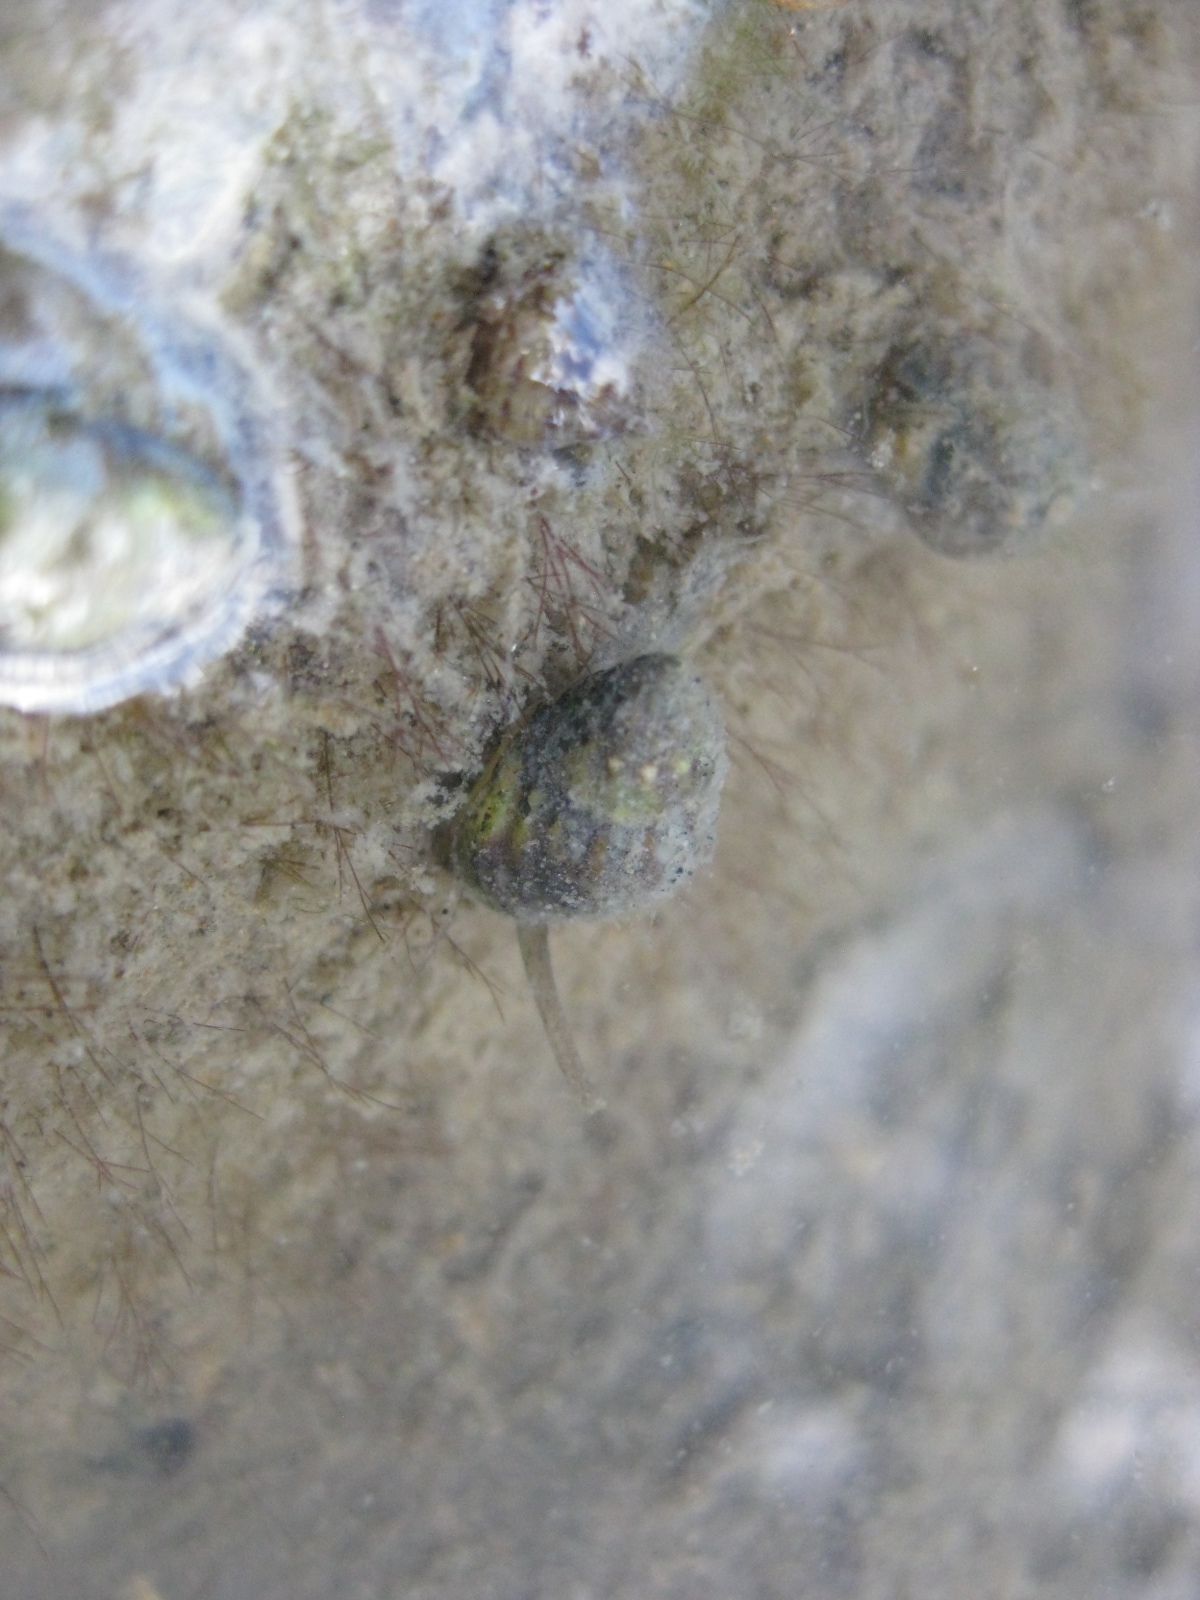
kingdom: Animalia
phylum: Mollusca
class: Gastropoda
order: Neogastropoda
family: Nassariidae
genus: Tritia
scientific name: Tritia burchardi
